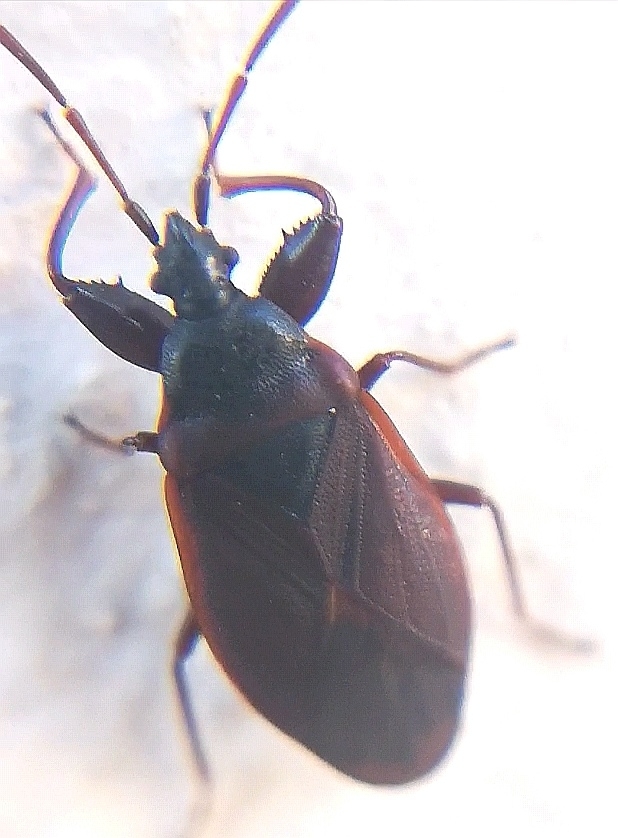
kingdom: Animalia
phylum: Arthropoda
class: Insecta
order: Hemiptera
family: Rhyparochromidae
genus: Gastrodes
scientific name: Gastrodes grossipes
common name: Pine cone bug
